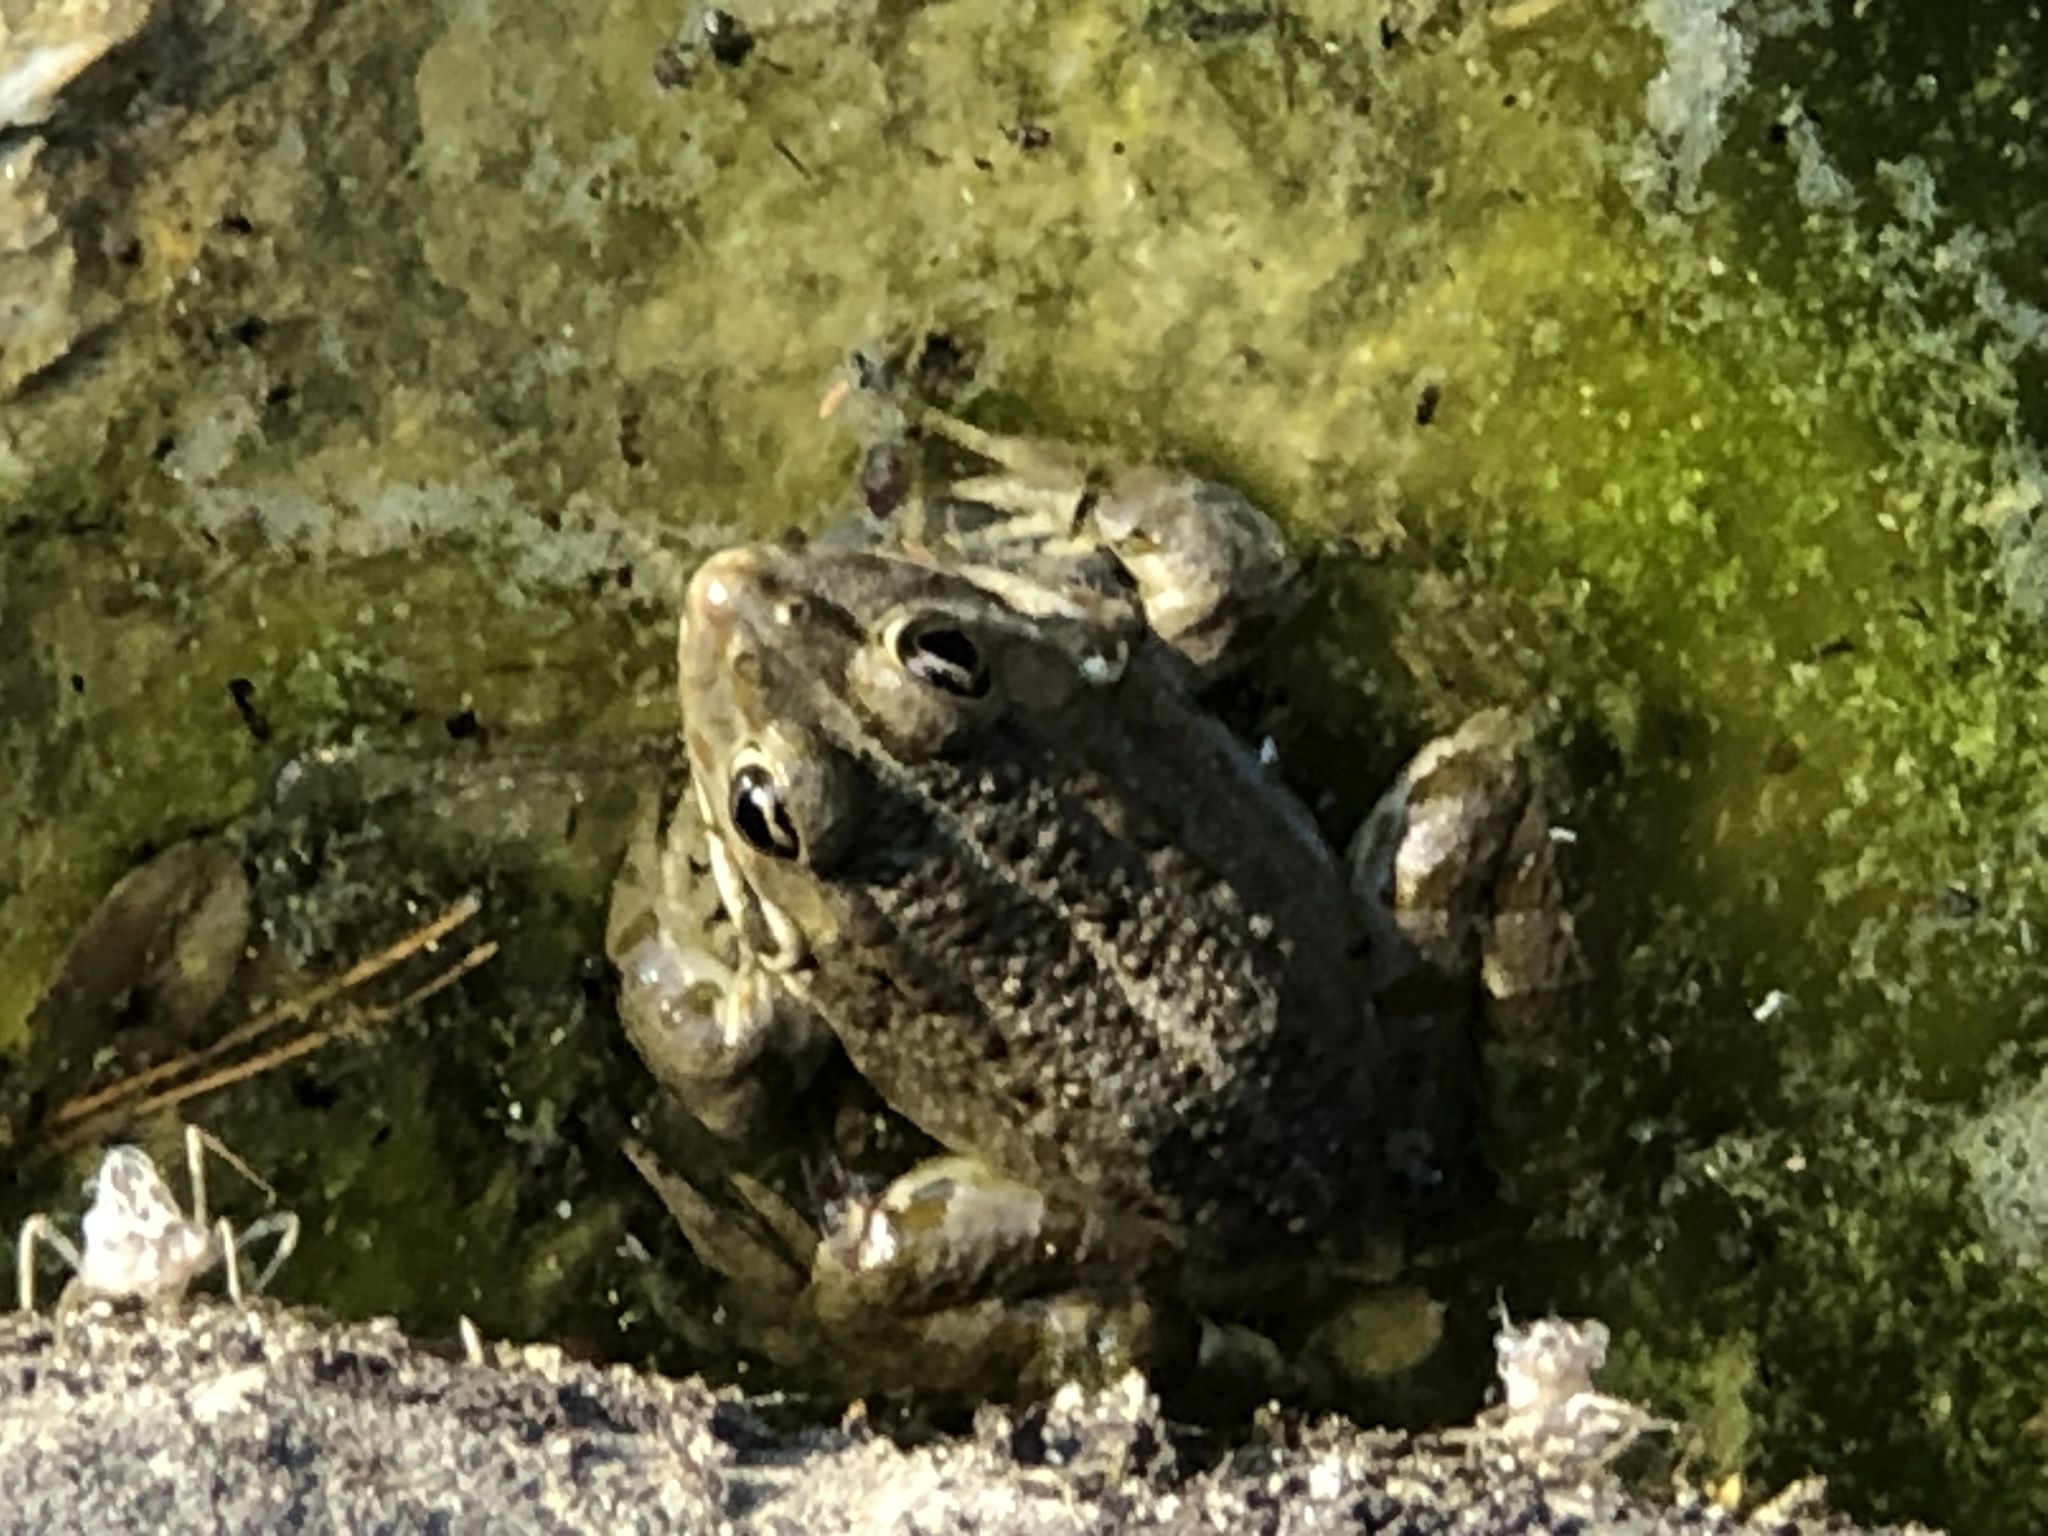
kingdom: Animalia
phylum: Chordata
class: Amphibia
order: Anura
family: Ranidae
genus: Pelophylax
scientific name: Pelophylax perezi
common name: Perez's frog
